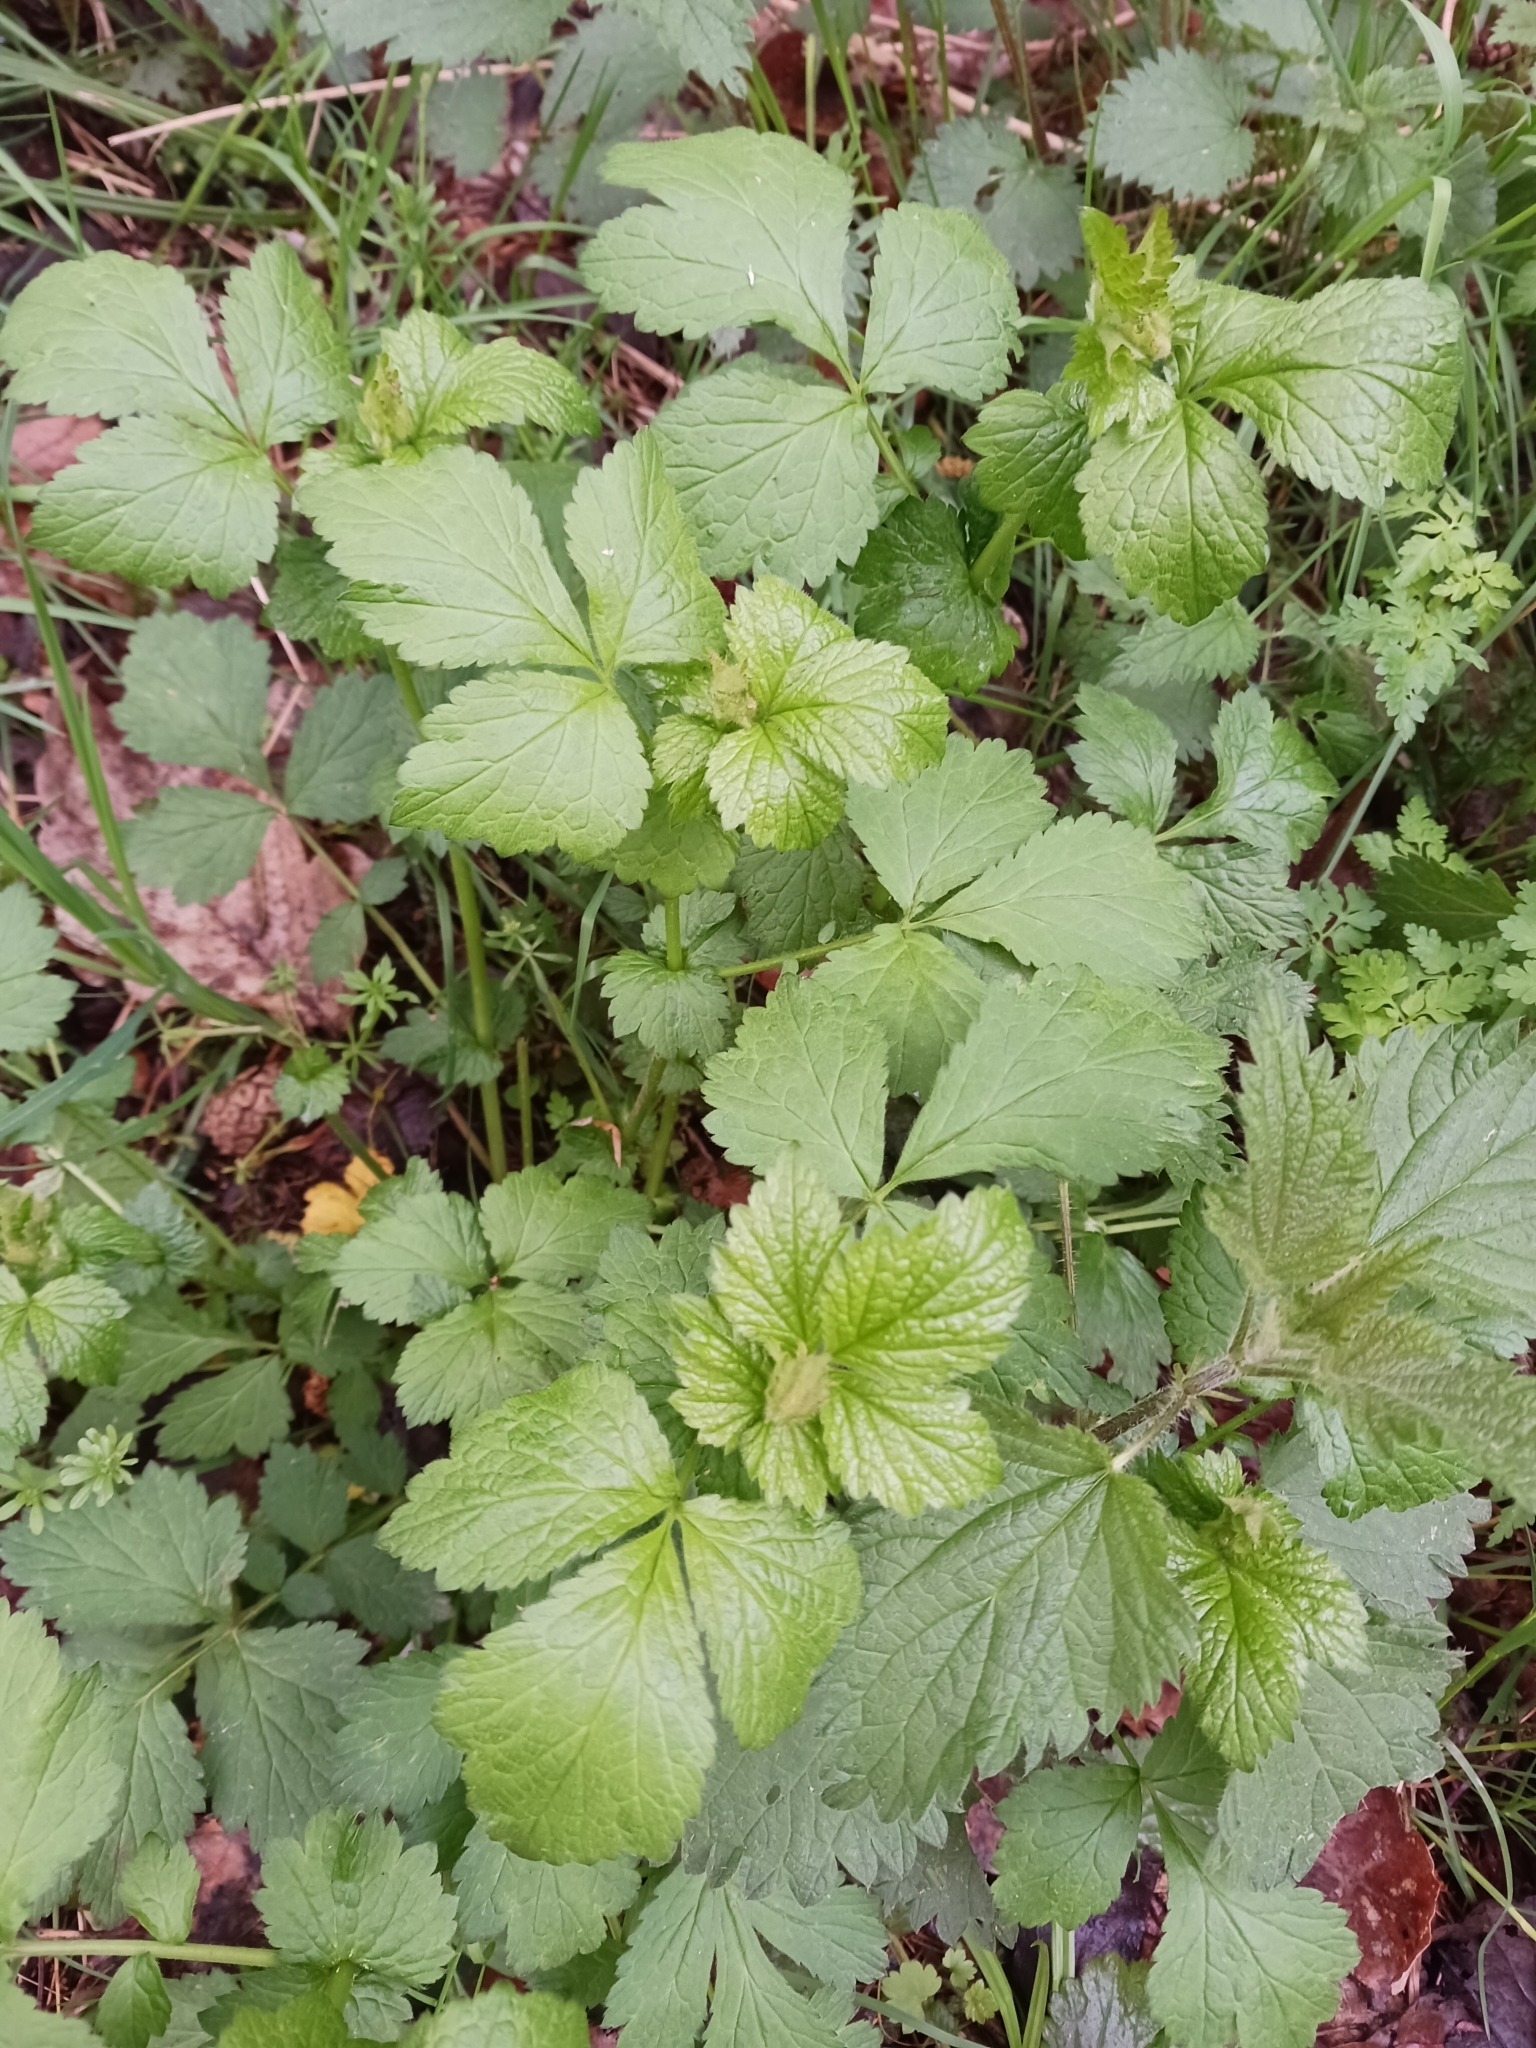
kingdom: Plantae
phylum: Tracheophyta
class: Magnoliopsida
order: Rosales
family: Rosaceae
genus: Geum
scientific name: Geum urbanum
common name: Wood avens
